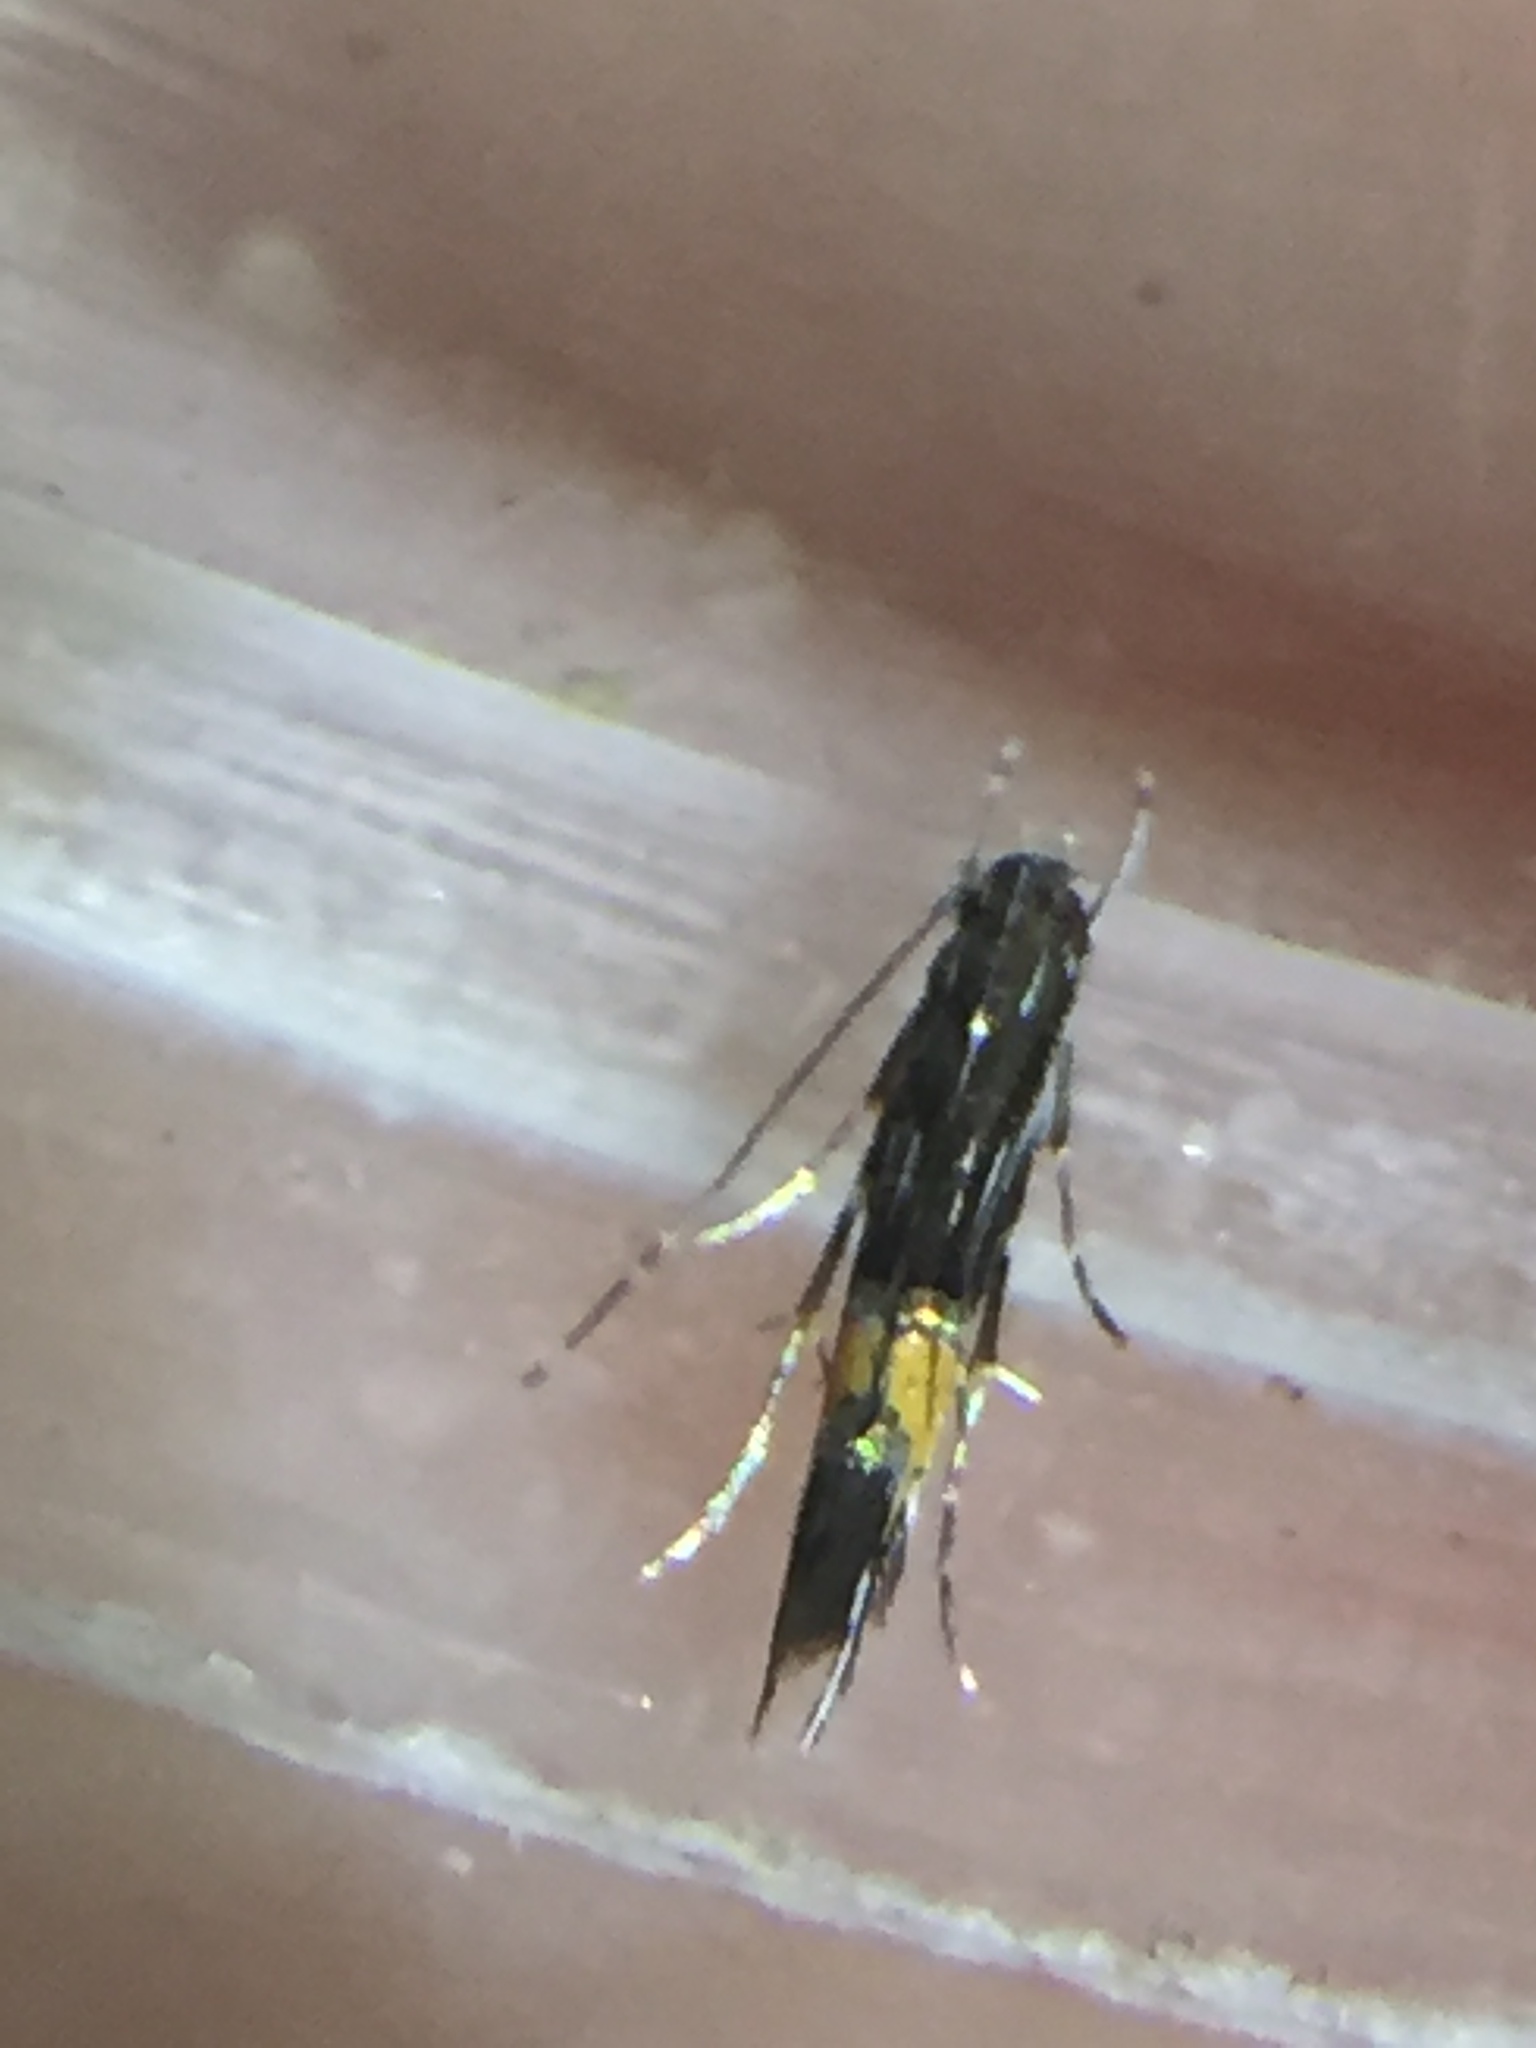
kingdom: Animalia
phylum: Arthropoda
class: Insecta
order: Lepidoptera
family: Cosmopterigidae
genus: Cosmopterix
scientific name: Cosmopterix attenuatella
